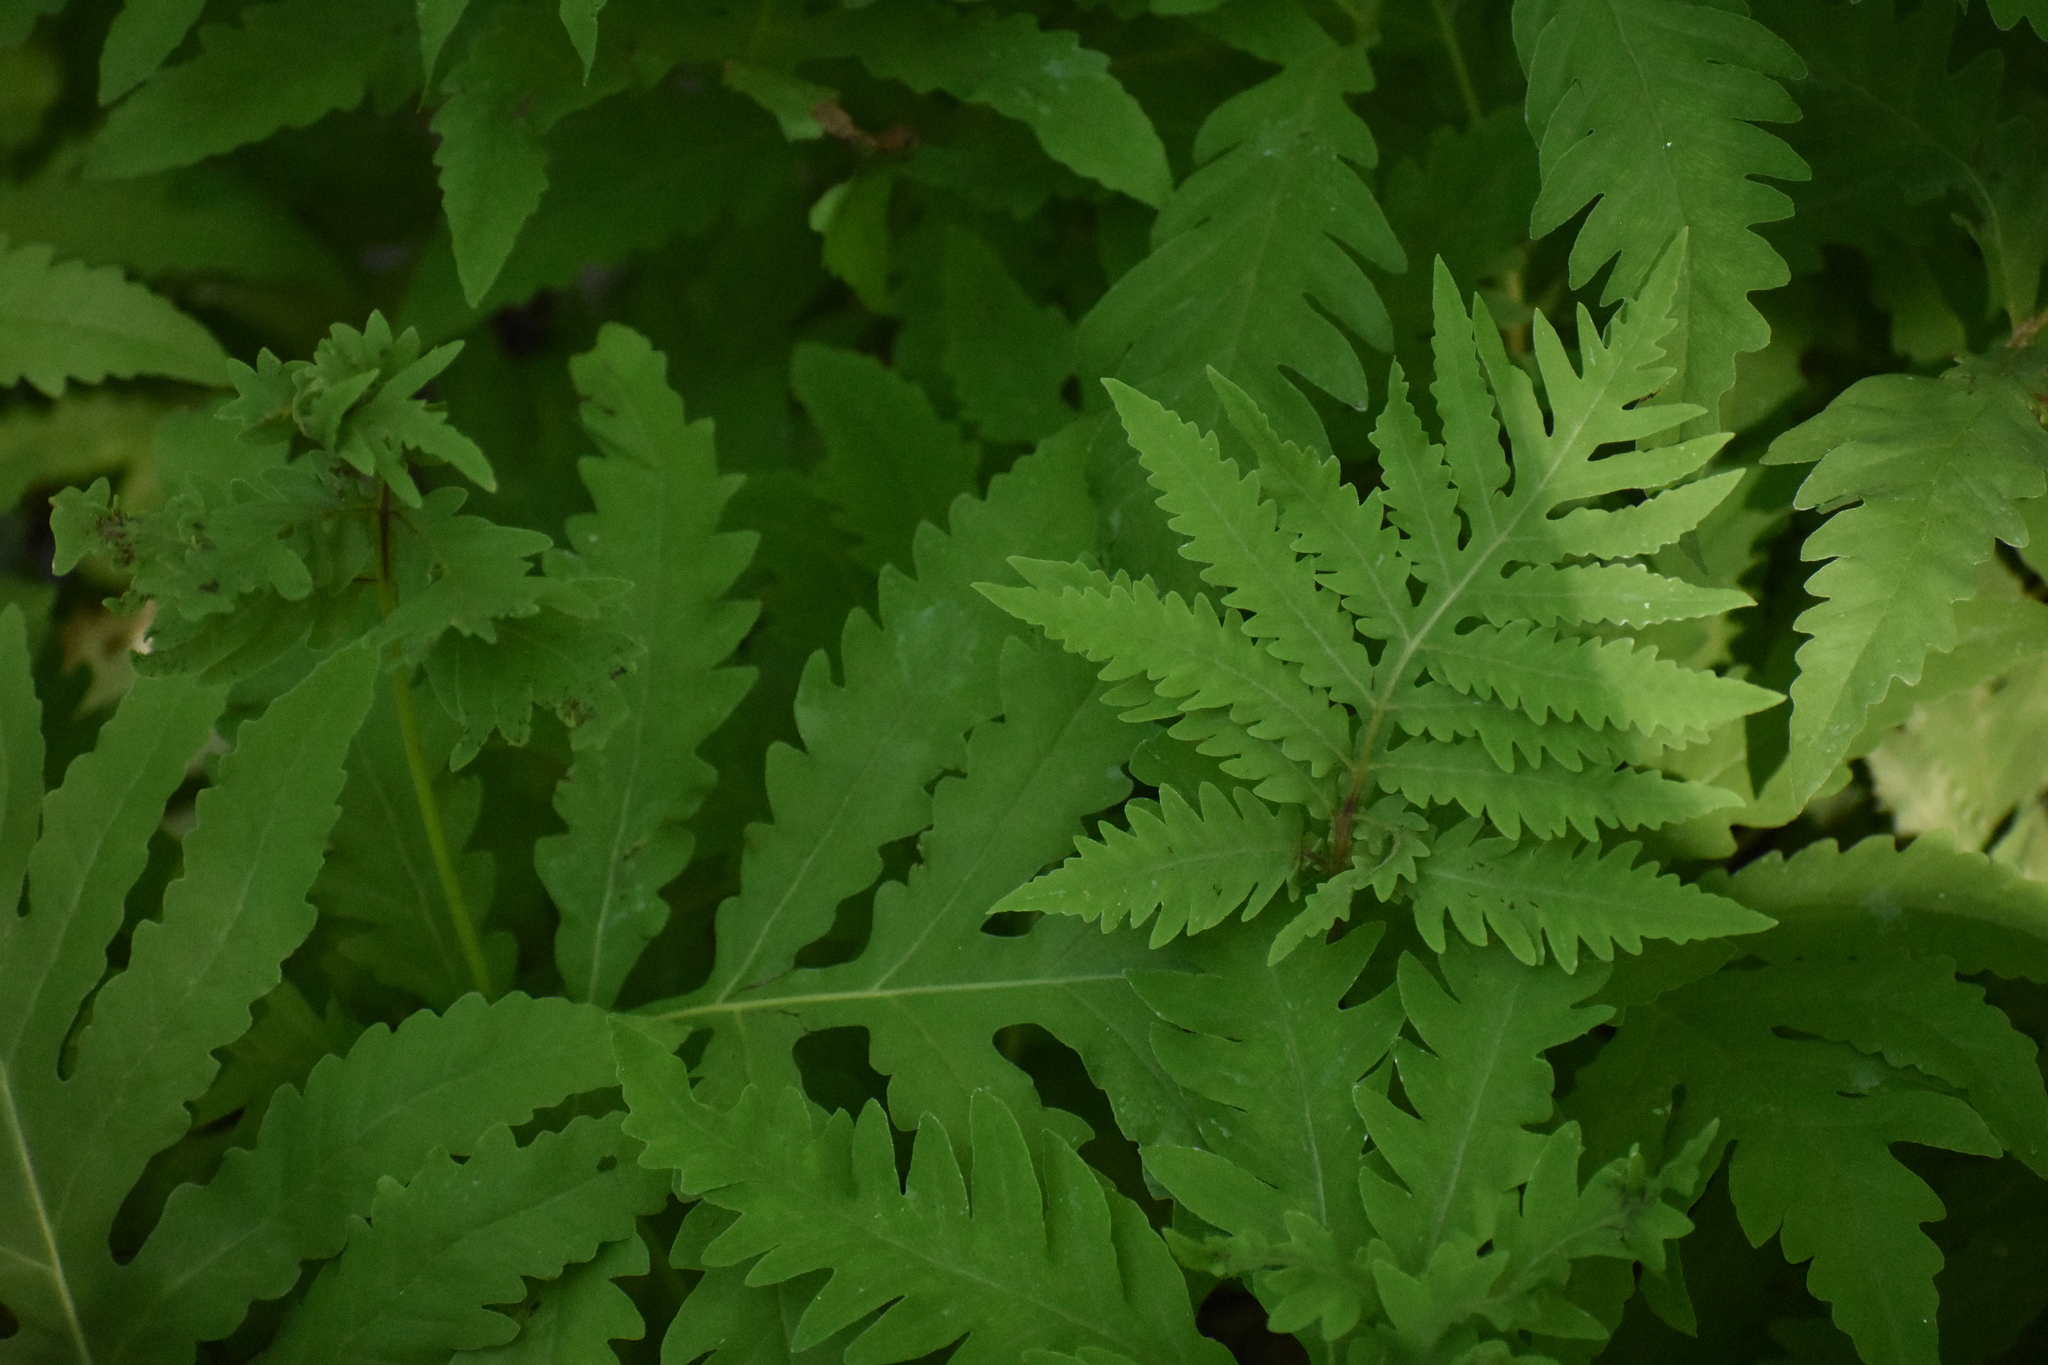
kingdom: Plantae
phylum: Tracheophyta
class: Polypodiopsida
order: Polypodiales
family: Onocleaceae
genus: Onoclea
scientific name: Onoclea sensibilis
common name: Sensitive fern
